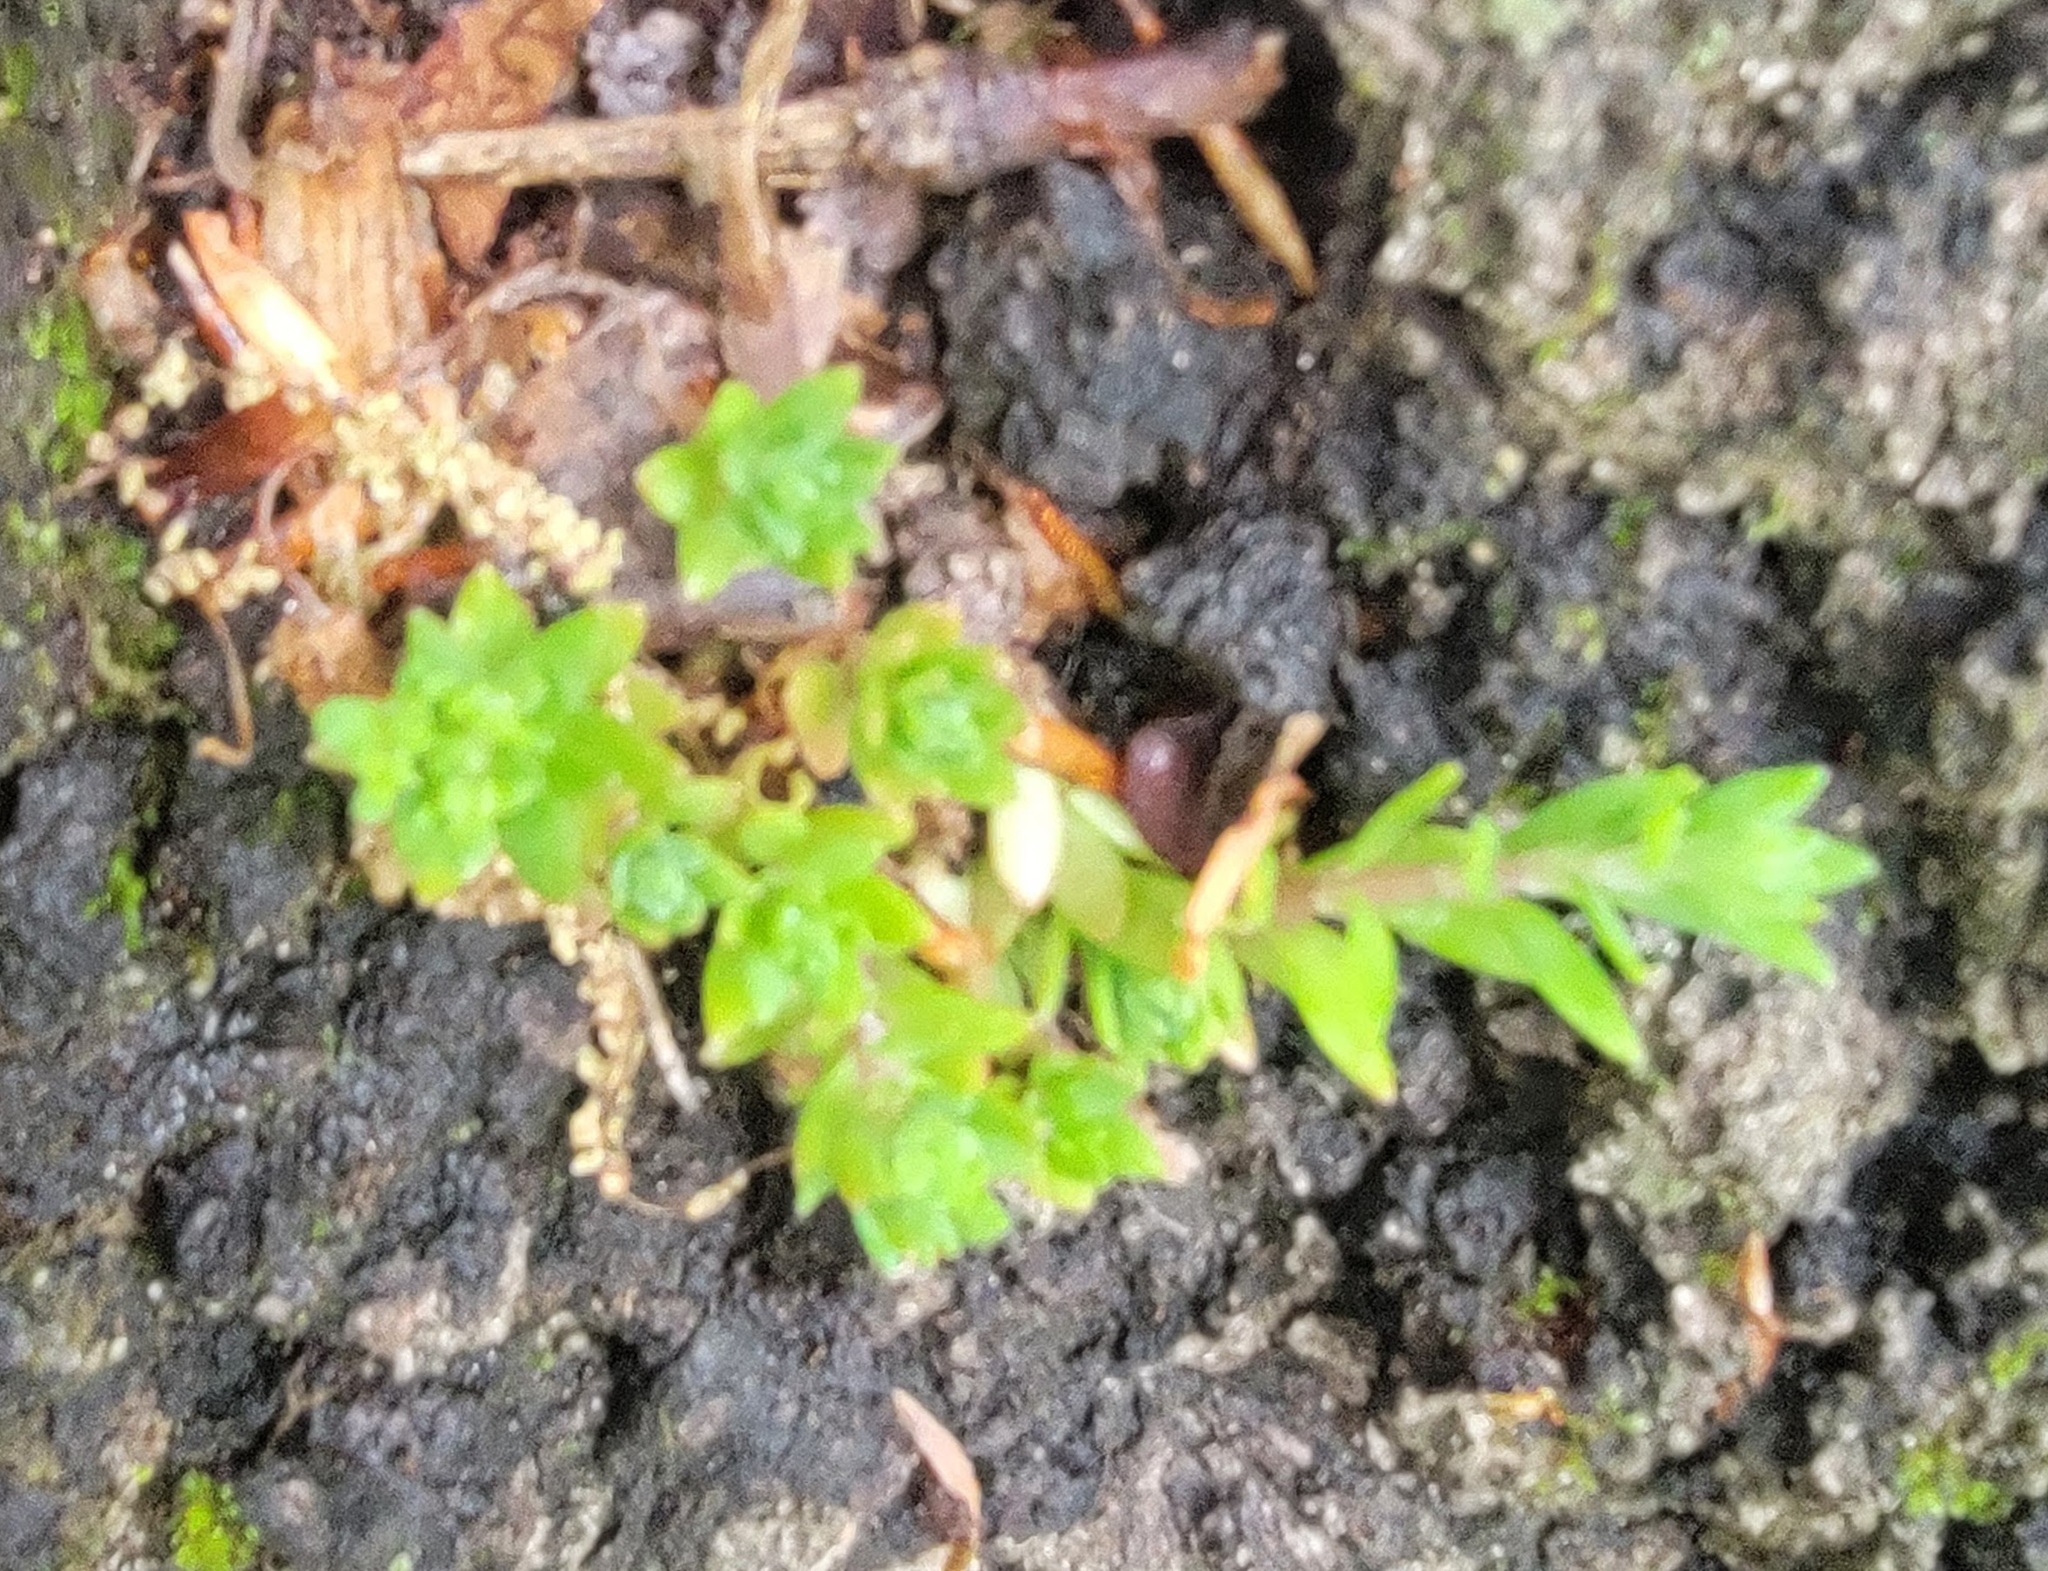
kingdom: Plantae
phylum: Tracheophyta
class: Magnoliopsida
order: Saxifragales
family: Crassulaceae
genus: Sedum
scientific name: Sedum sarmentosum
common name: Stringy stonecrop
